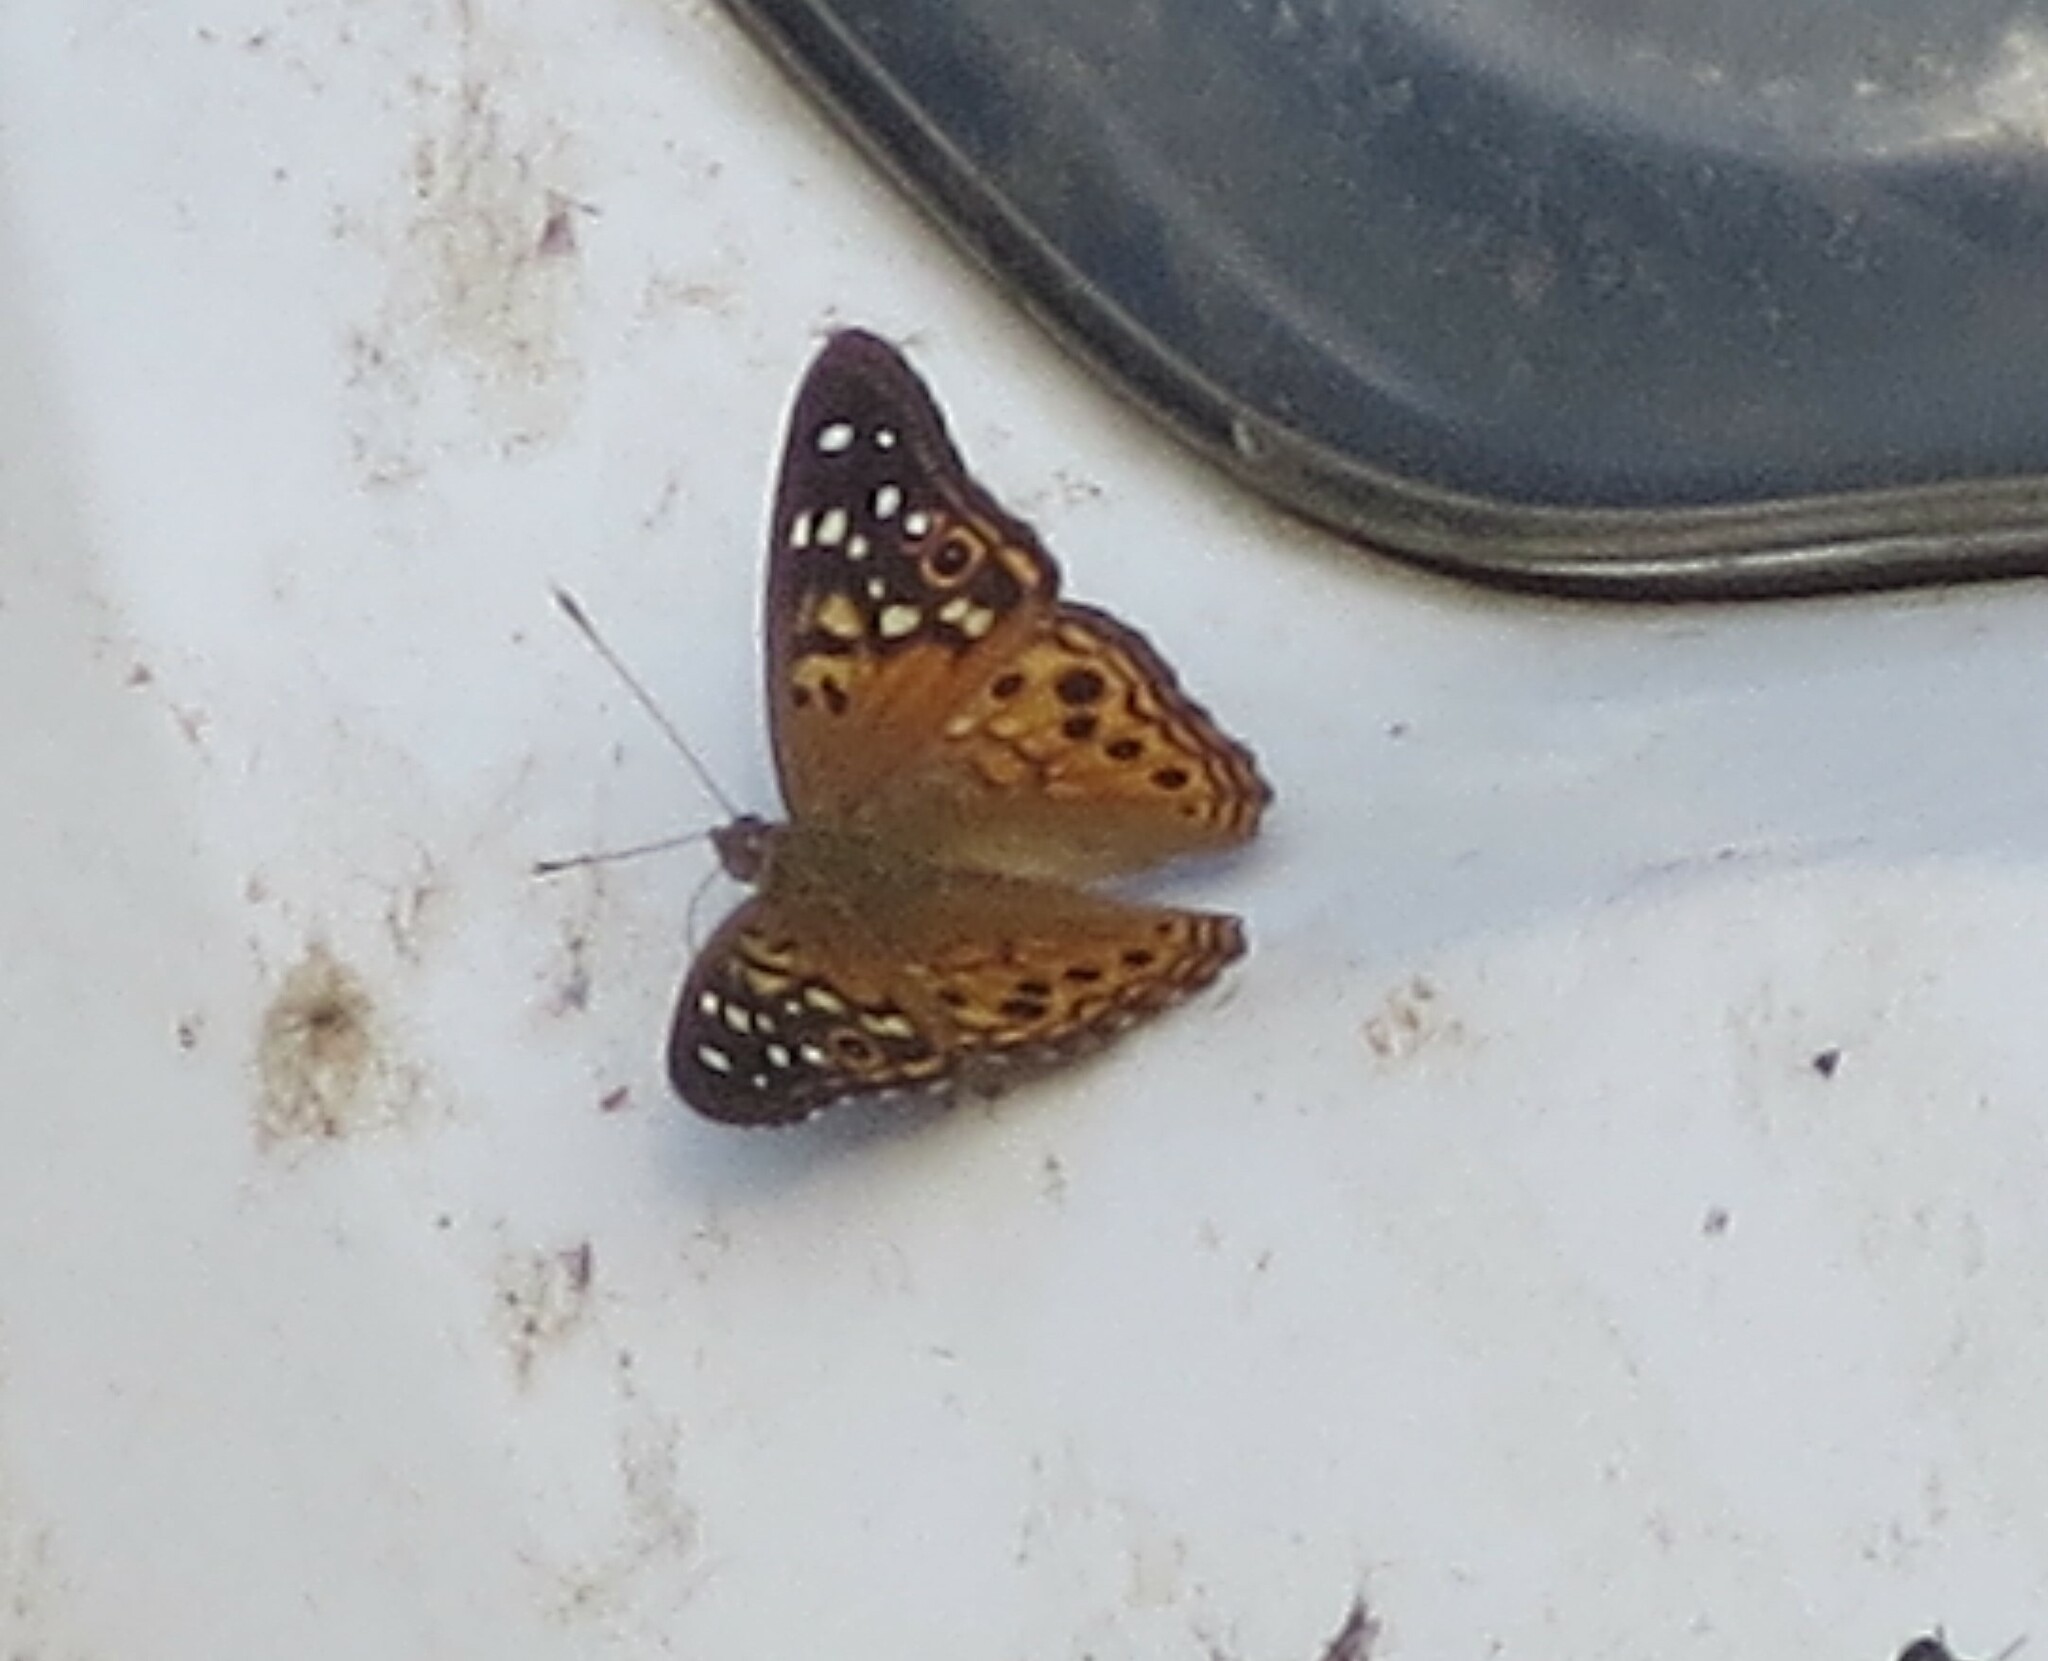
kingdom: Animalia
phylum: Arthropoda
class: Insecta
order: Lepidoptera
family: Nymphalidae
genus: Asterocampa
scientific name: Asterocampa celtis
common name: Hackberry emperor
